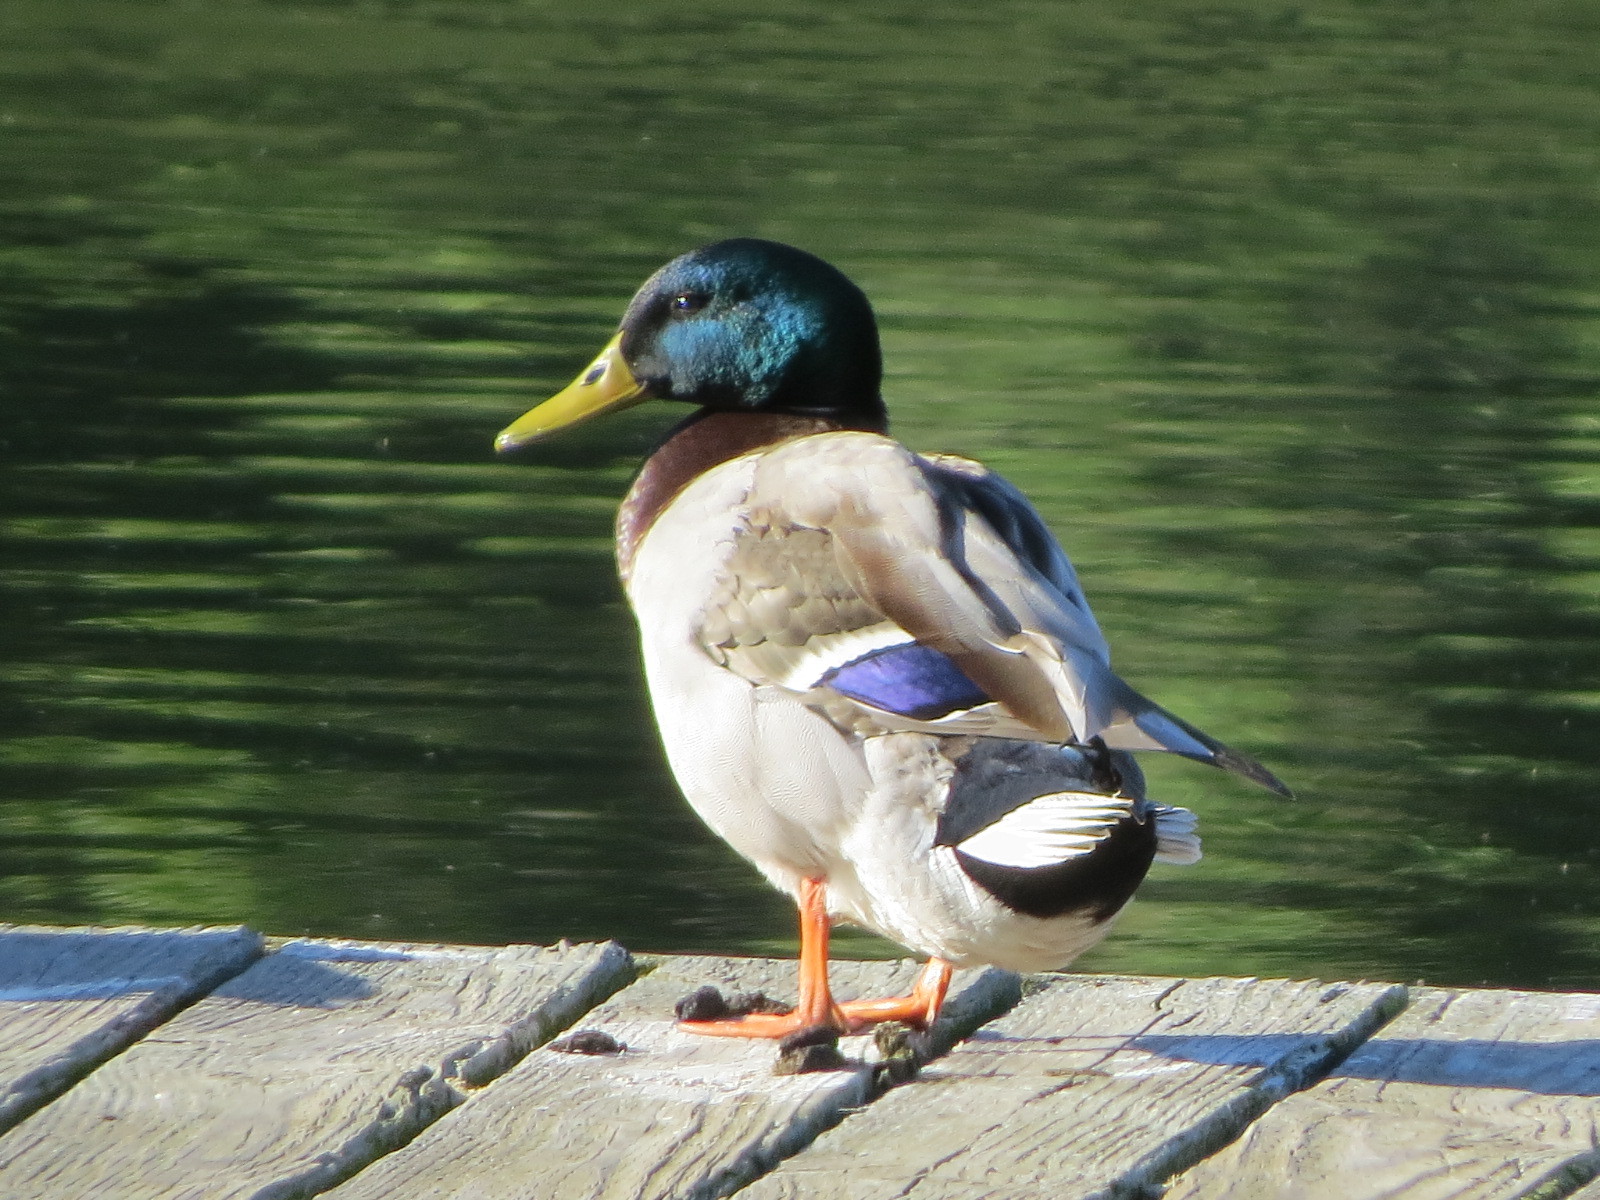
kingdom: Animalia
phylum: Chordata
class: Aves
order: Anseriformes
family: Anatidae
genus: Anas
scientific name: Anas platyrhynchos
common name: Mallard
